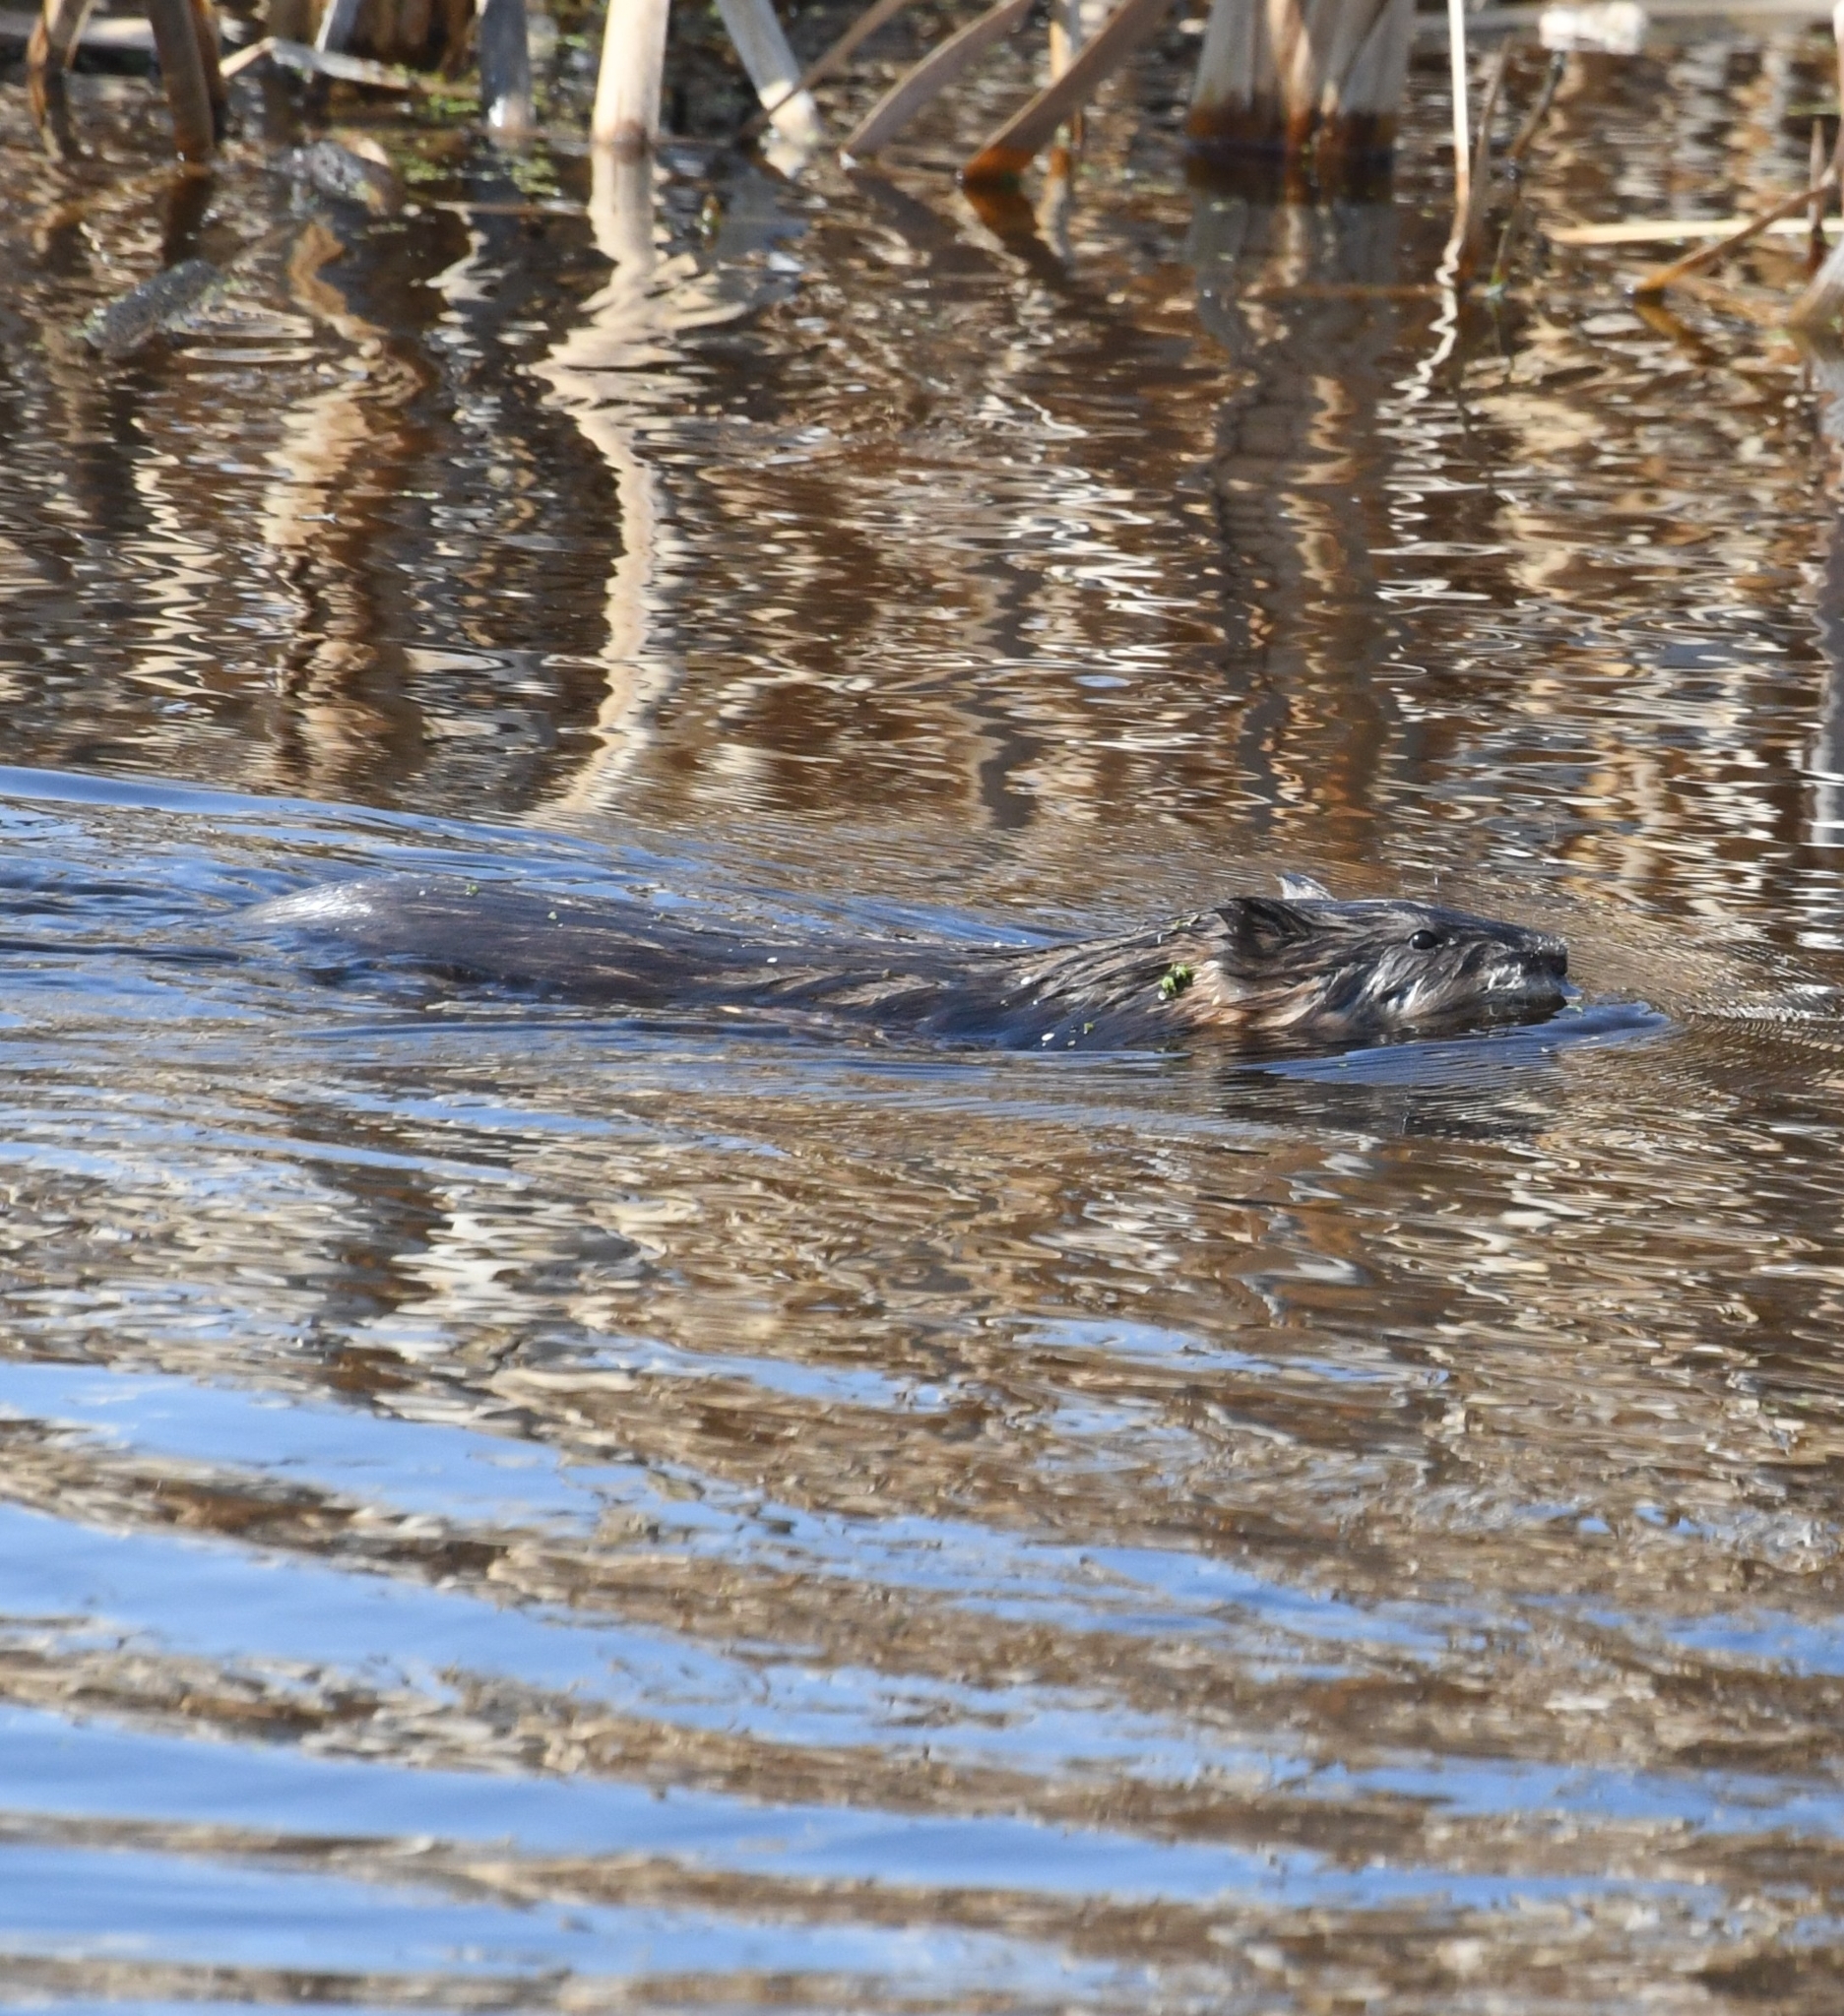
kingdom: Animalia
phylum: Chordata
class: Mammalia
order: Rodentia
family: Cricetidae
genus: Ondatra
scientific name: Ondatra zibethicus
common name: Muskrat
